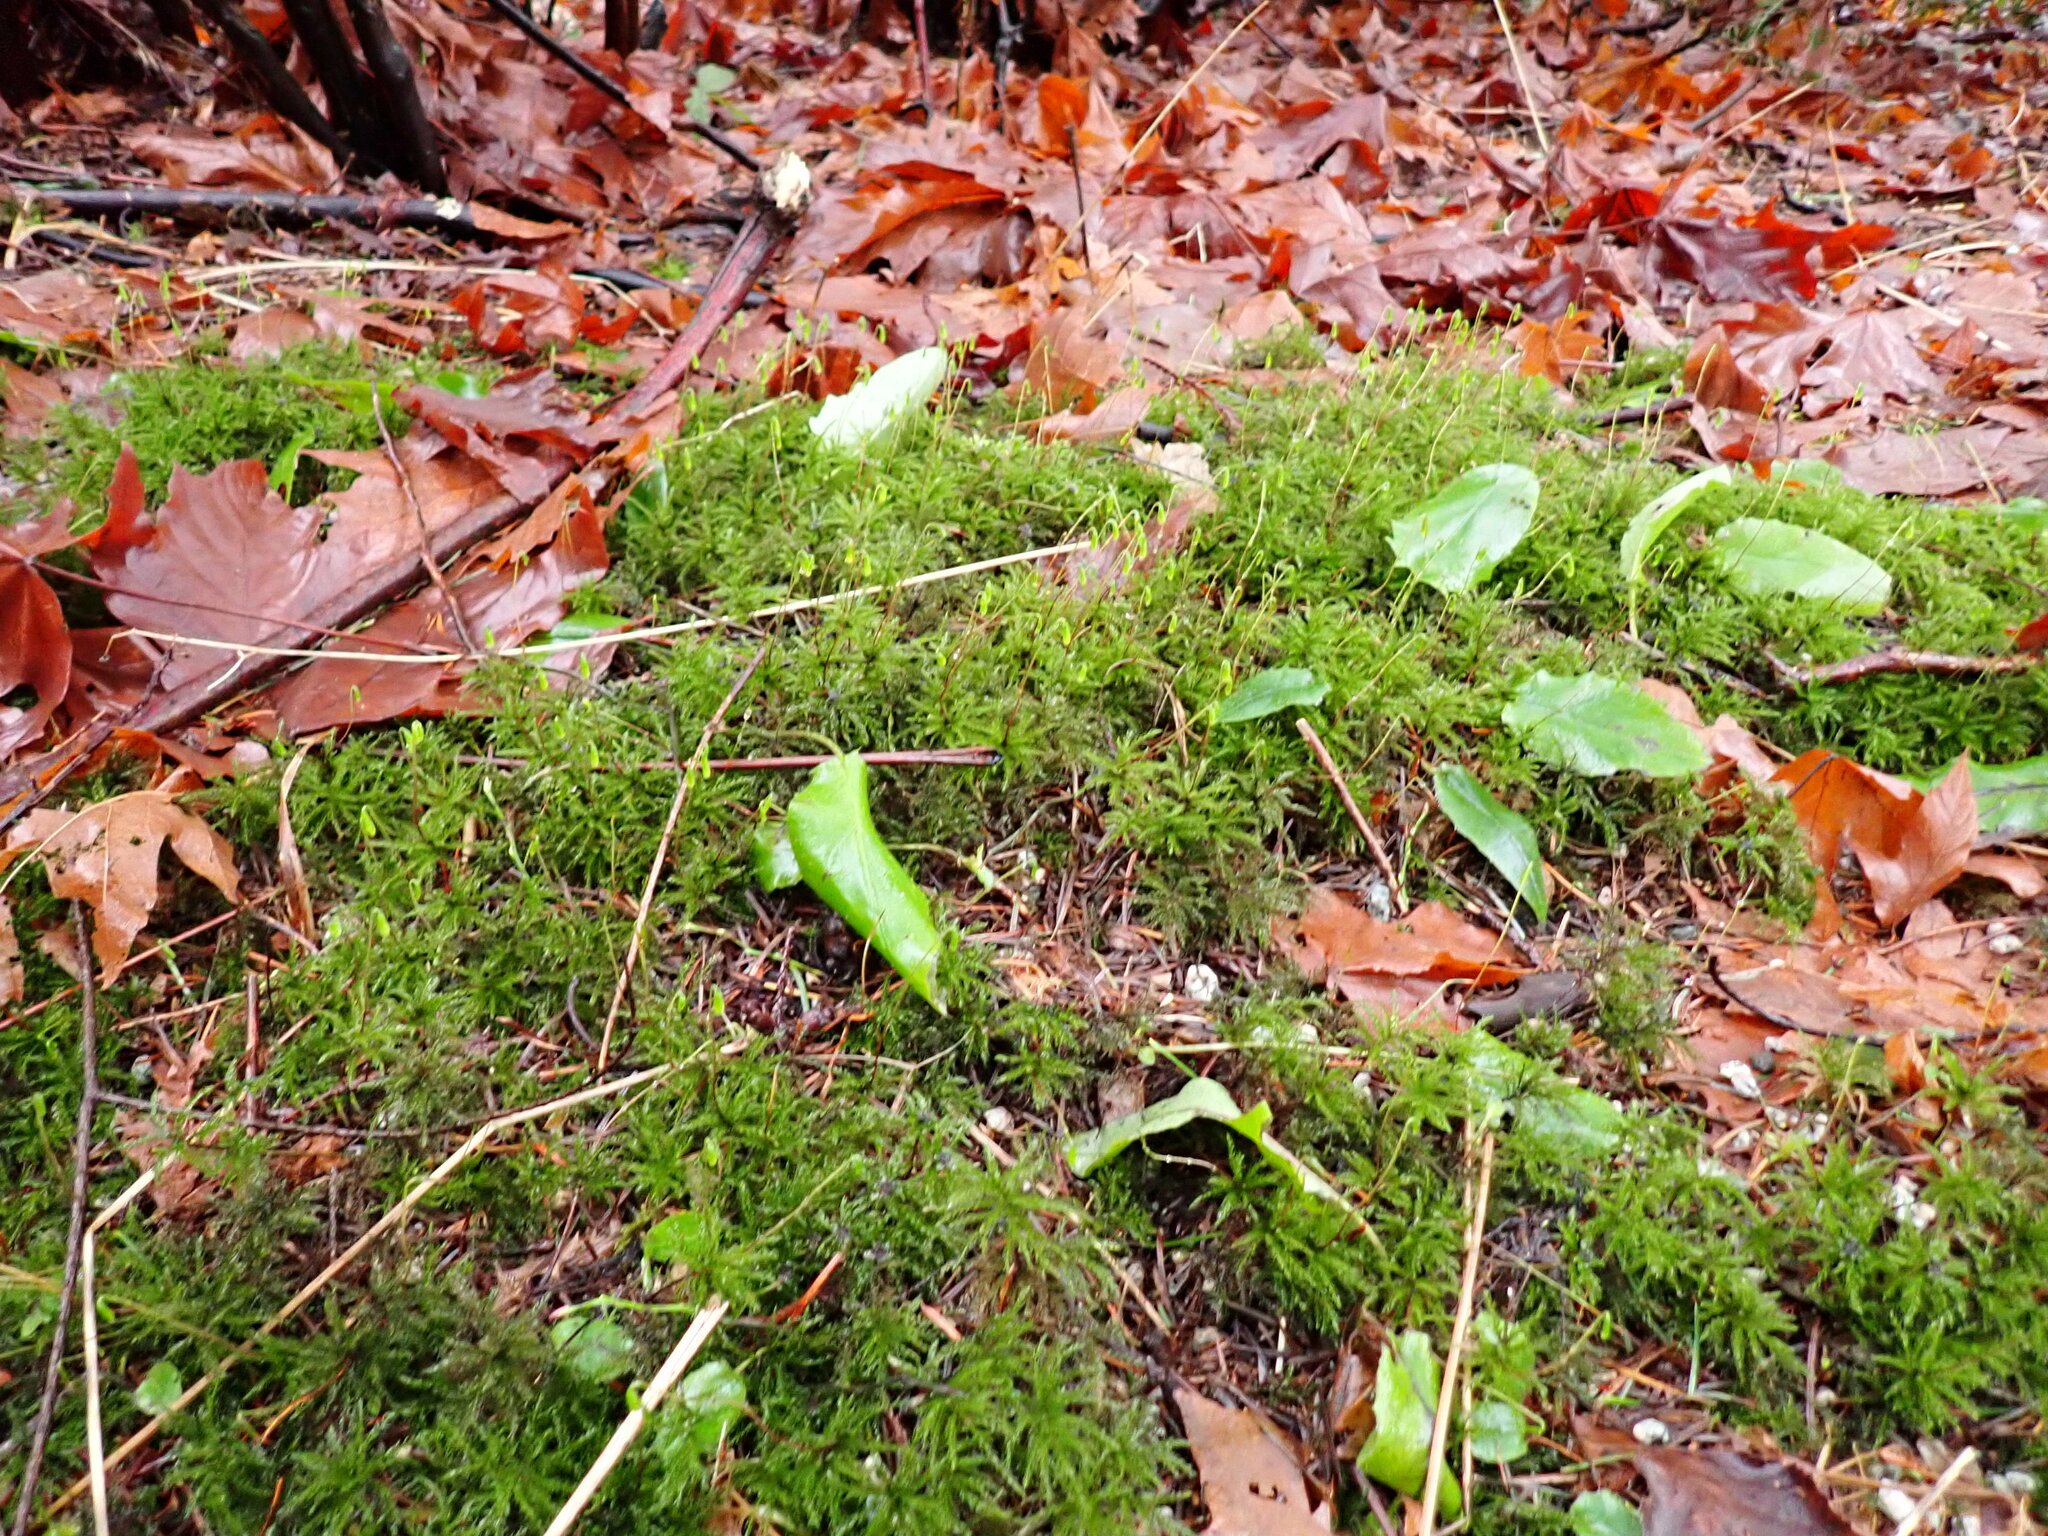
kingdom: Plantae
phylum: Bryophyta
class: Bryopsida
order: Bryales
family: Mniaceae
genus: Leucolepis
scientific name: Leucolepis acanthoneura
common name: Leucolepis umbrella moss
